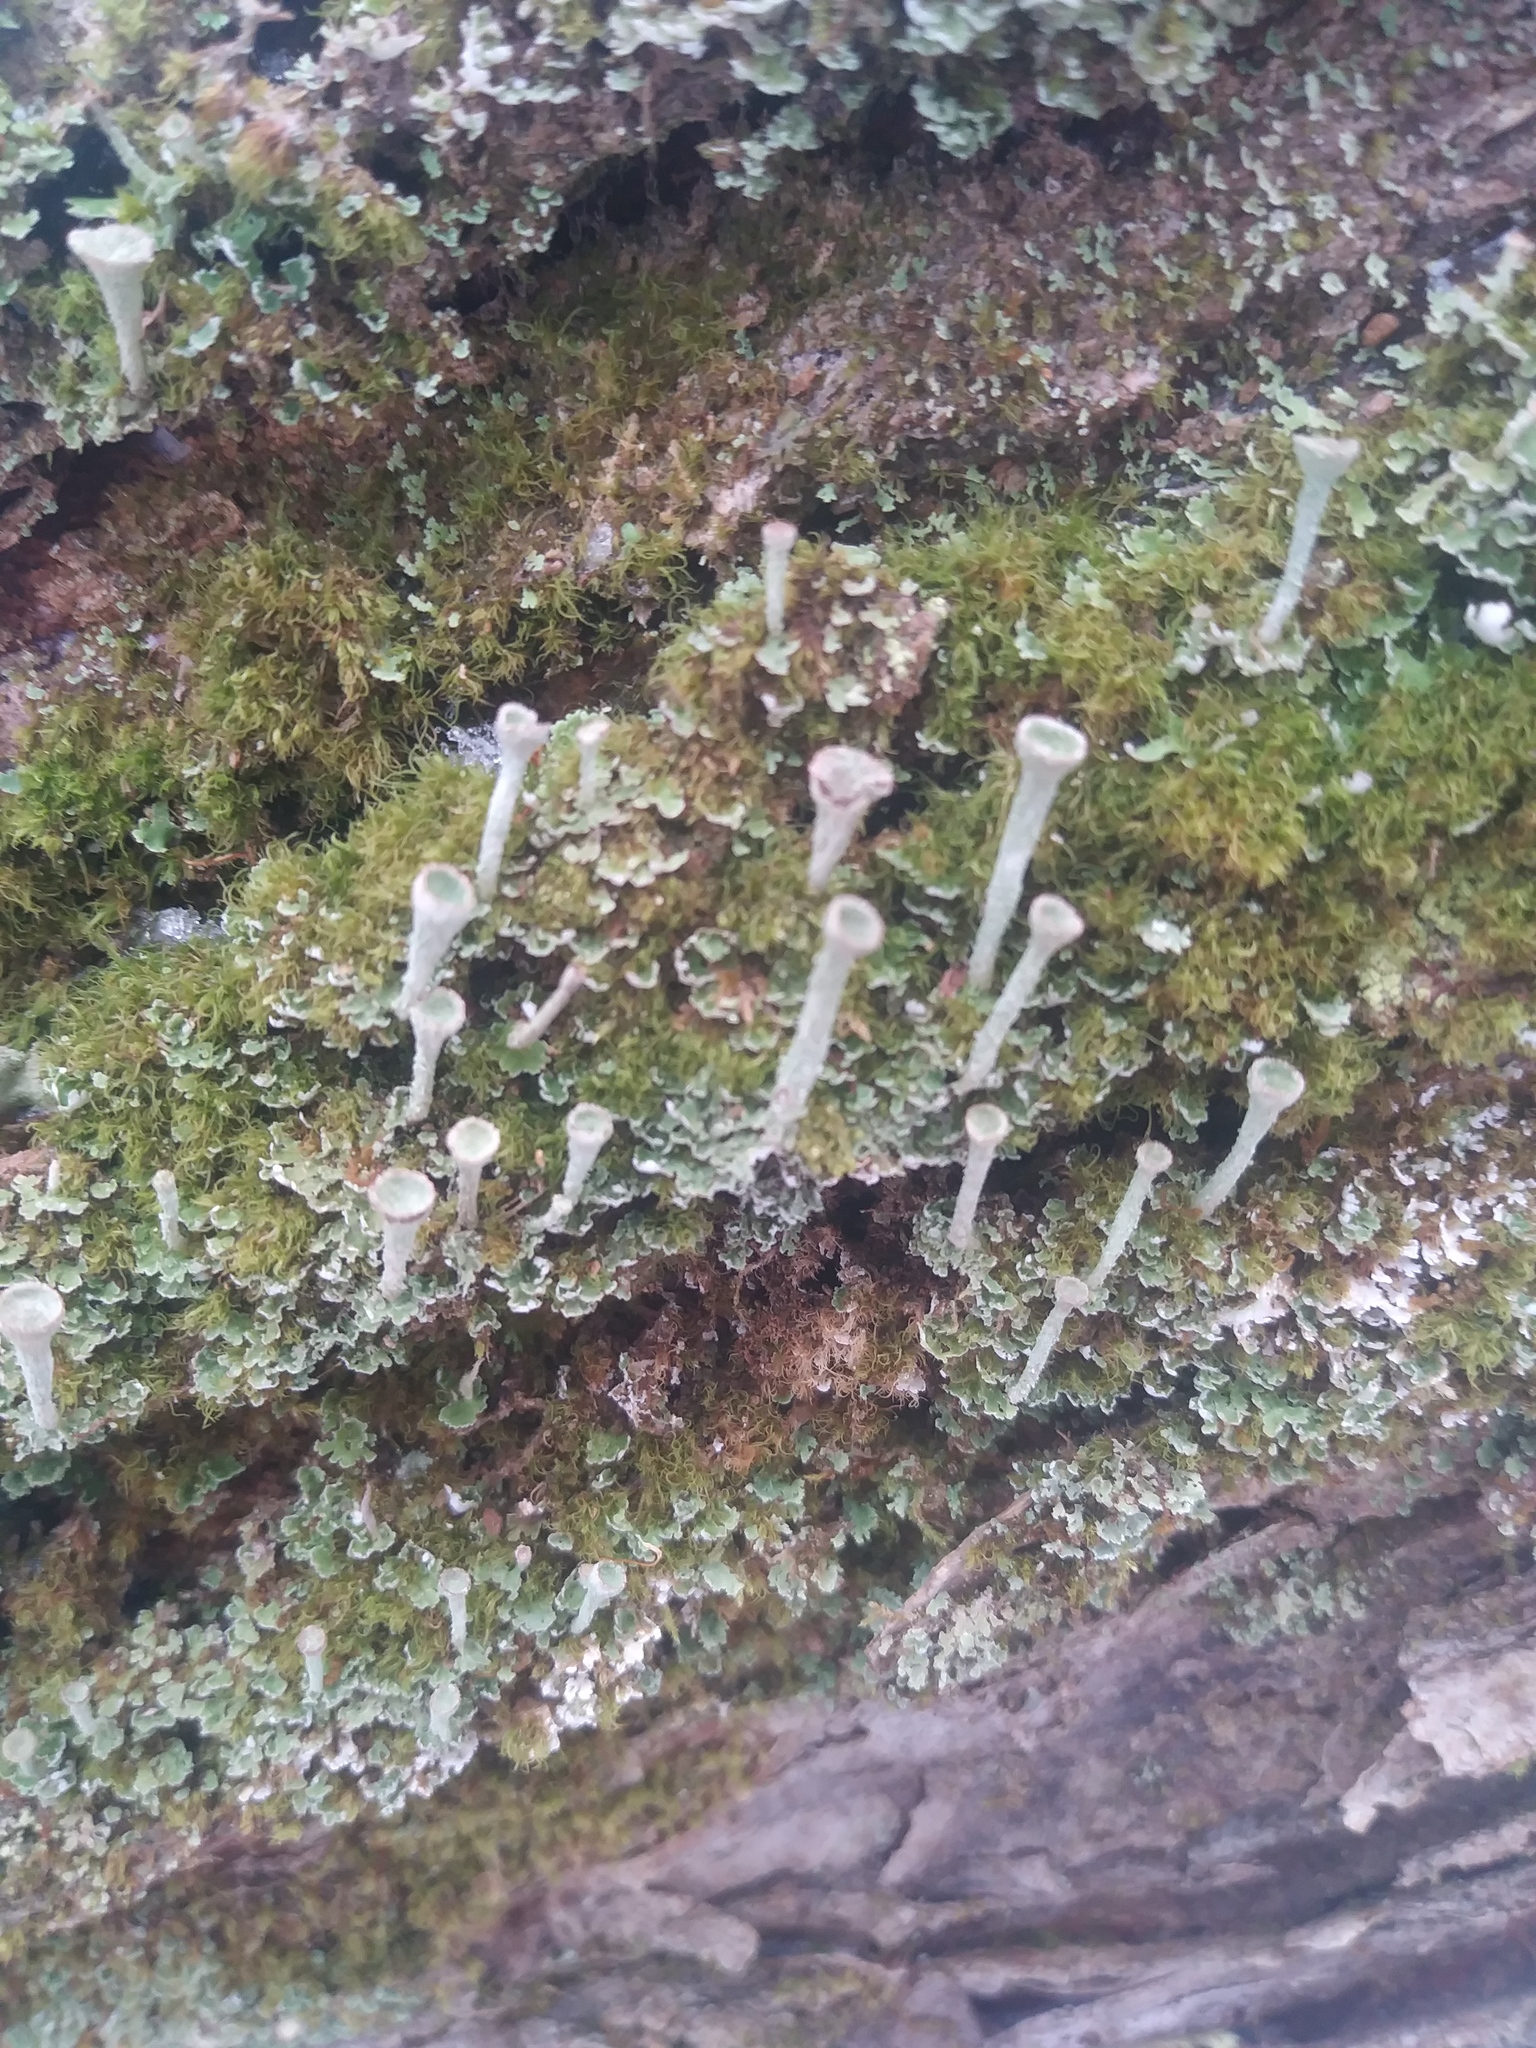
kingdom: Fungi
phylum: Ascomycota
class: Lecanoromycetes
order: Lecanorales
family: Cladoniaceae
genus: Cladonia
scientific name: Cladonia fimbriata
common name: Powdered trumpet lichen
